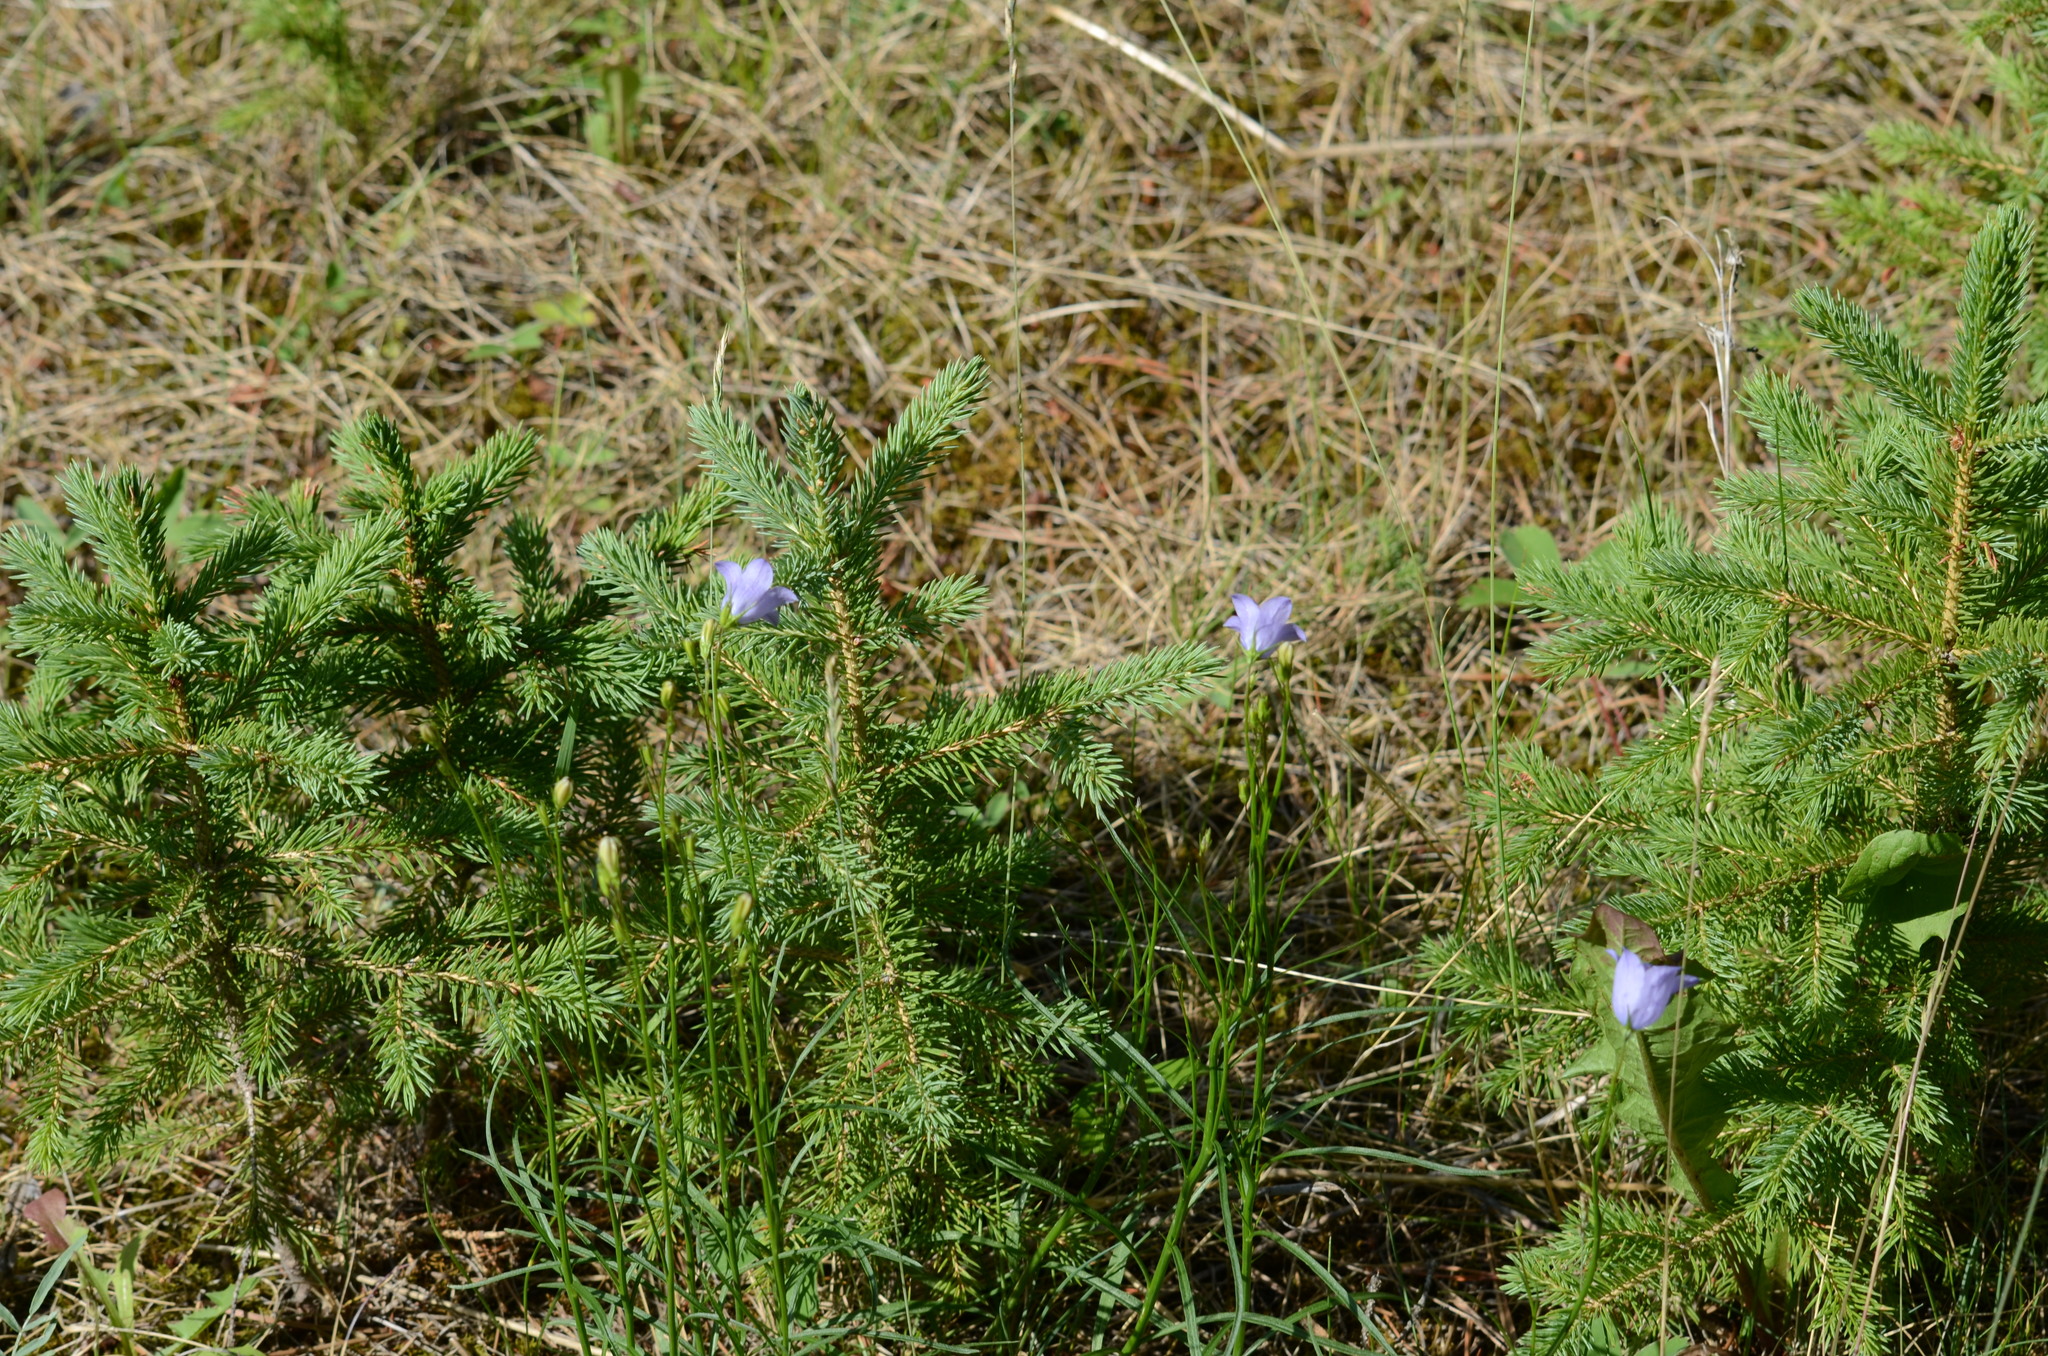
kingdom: Plantae
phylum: Tracheophyta
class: Magnoliopsida
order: Asterales
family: Campanulaceae
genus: Campanula
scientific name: Campanula alaskana
